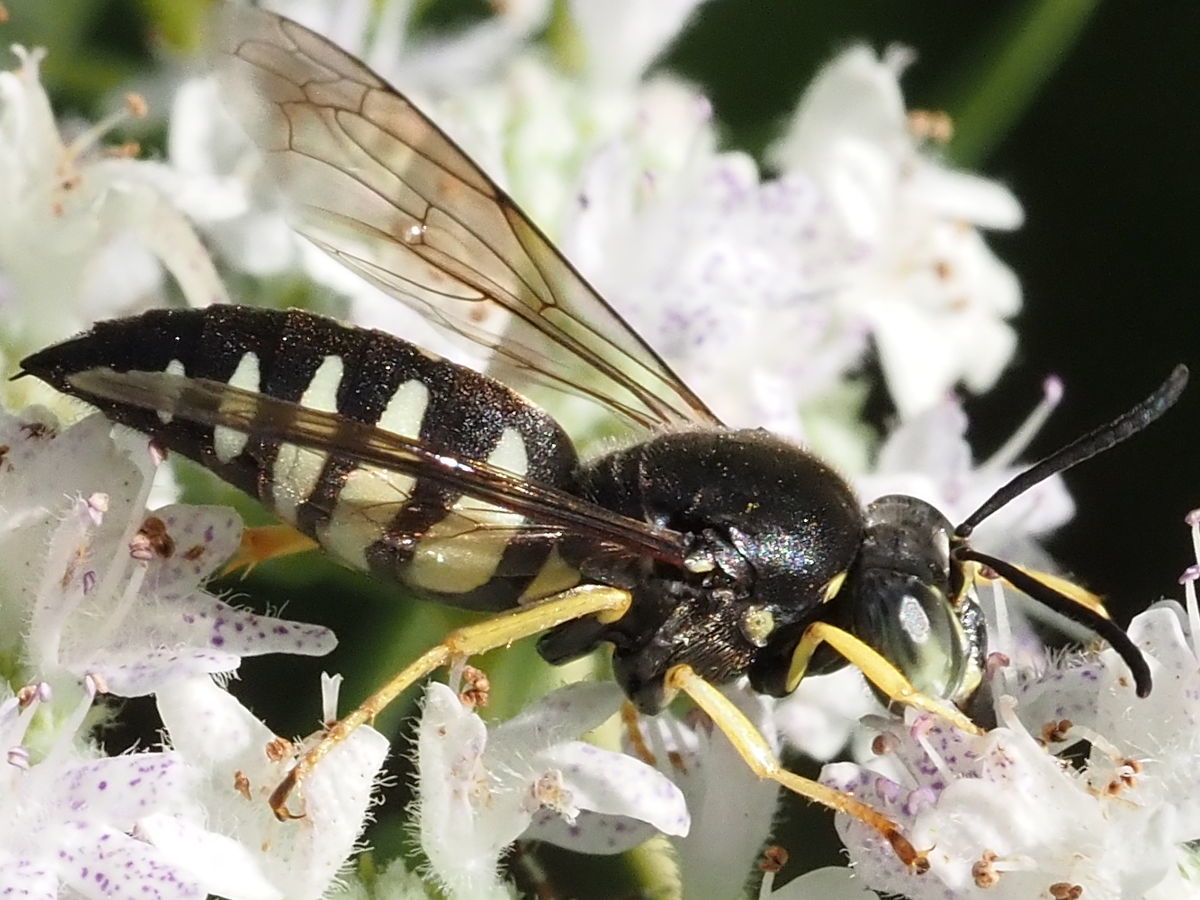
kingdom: Animalia
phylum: Arthropoda
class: Insecta
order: Hymenoptera
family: Crabronidae
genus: Bicyrtes
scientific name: Bicyrtes quadrifasciatus
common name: Four-banded stink bug hunter wasp
